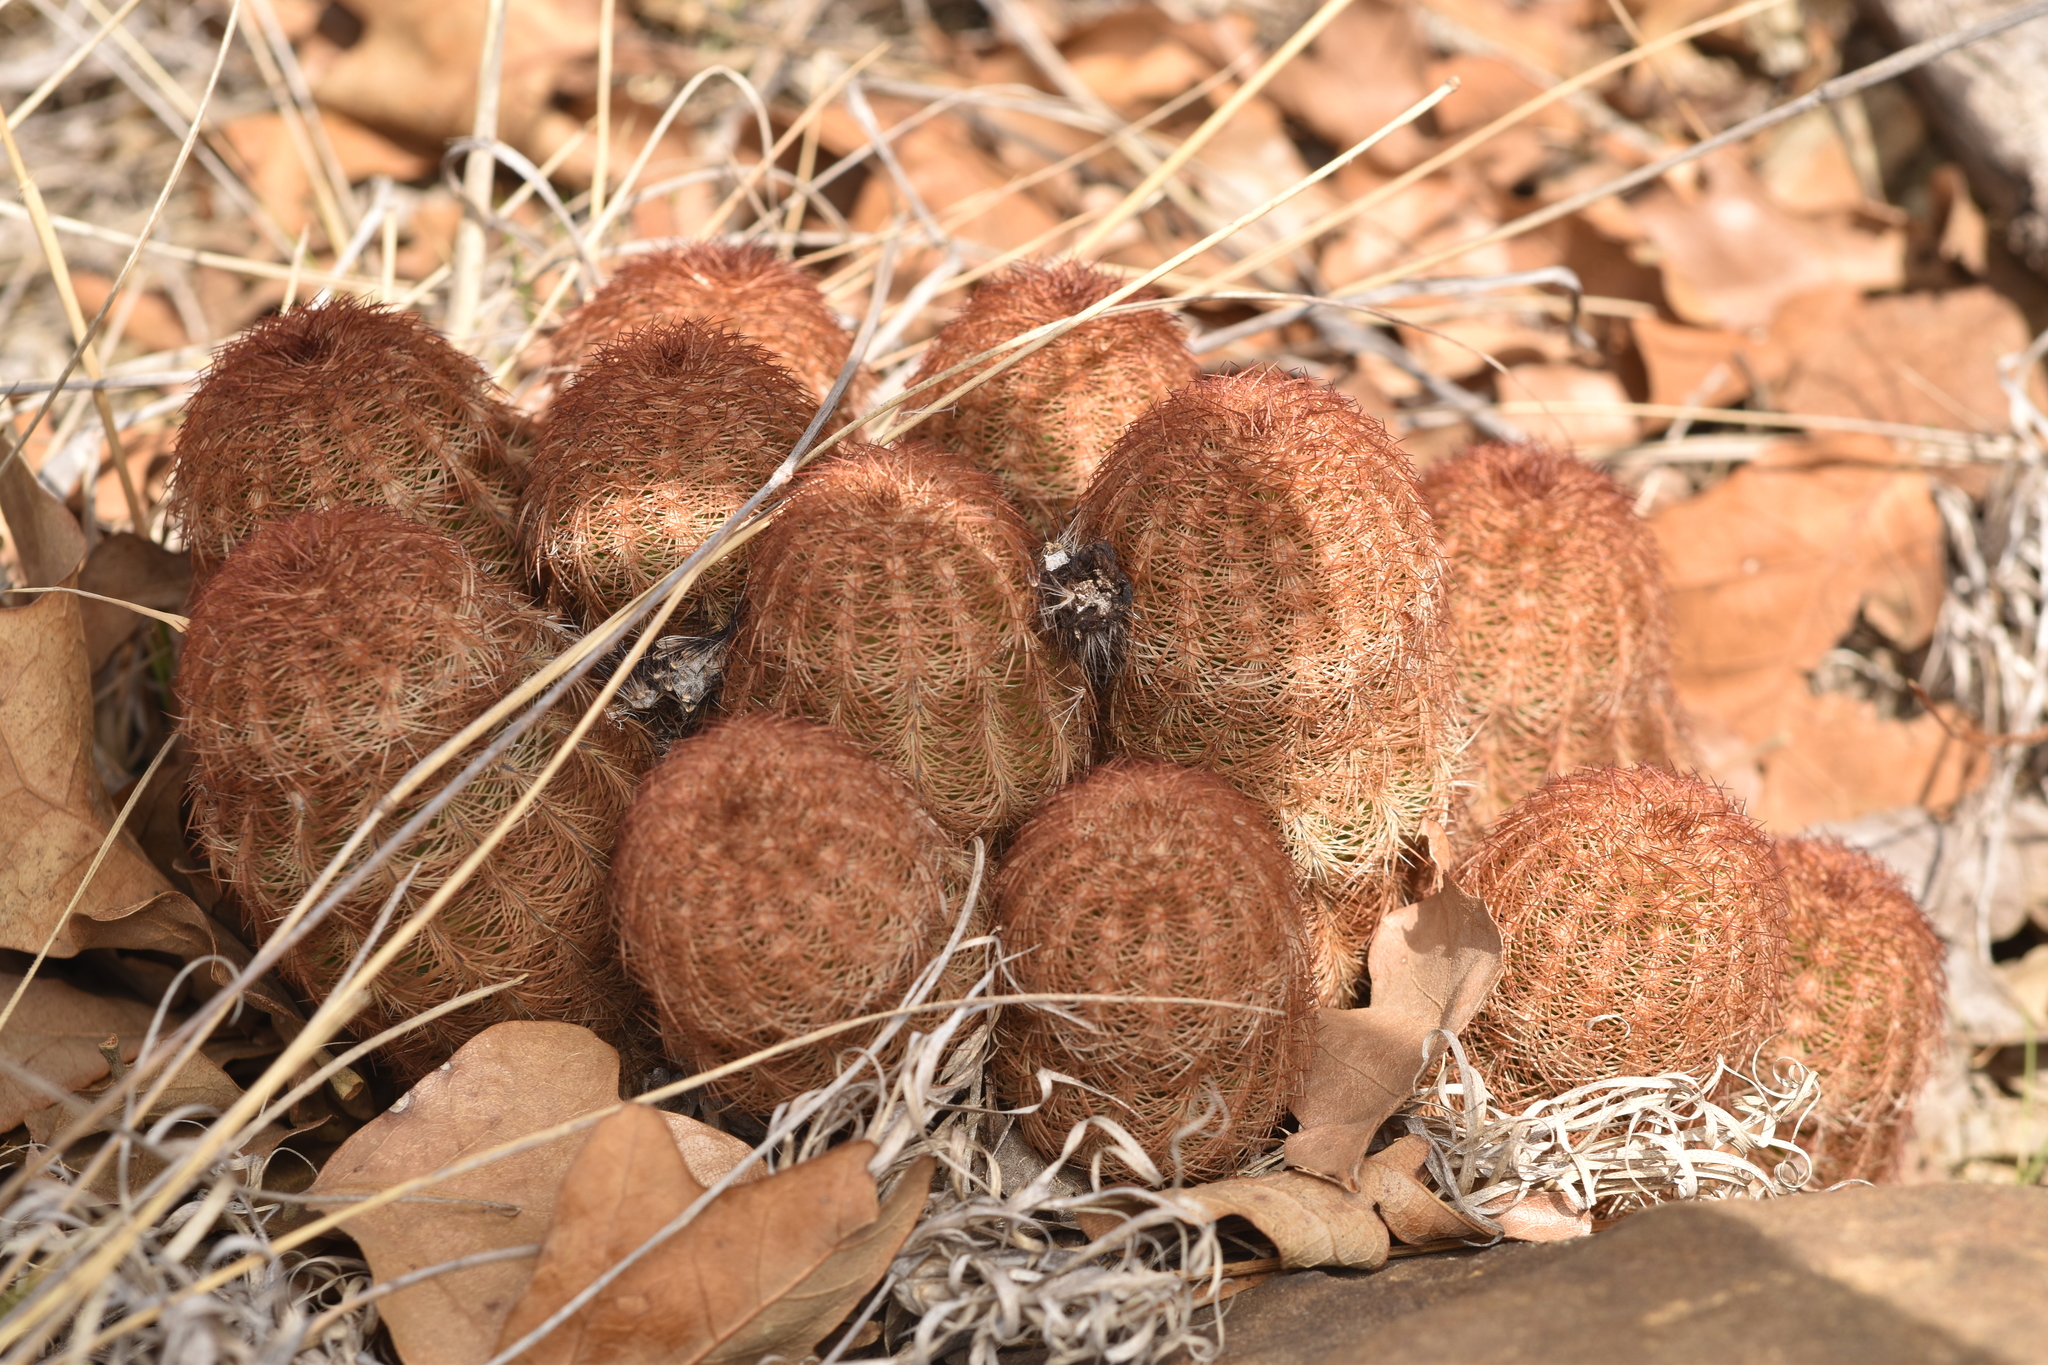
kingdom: Plantae
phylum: Tracheophyta
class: Magnoliopsida
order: Caryophyllales
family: Cactaceae
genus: Echinocereus
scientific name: Echinocereus reichenbachii
